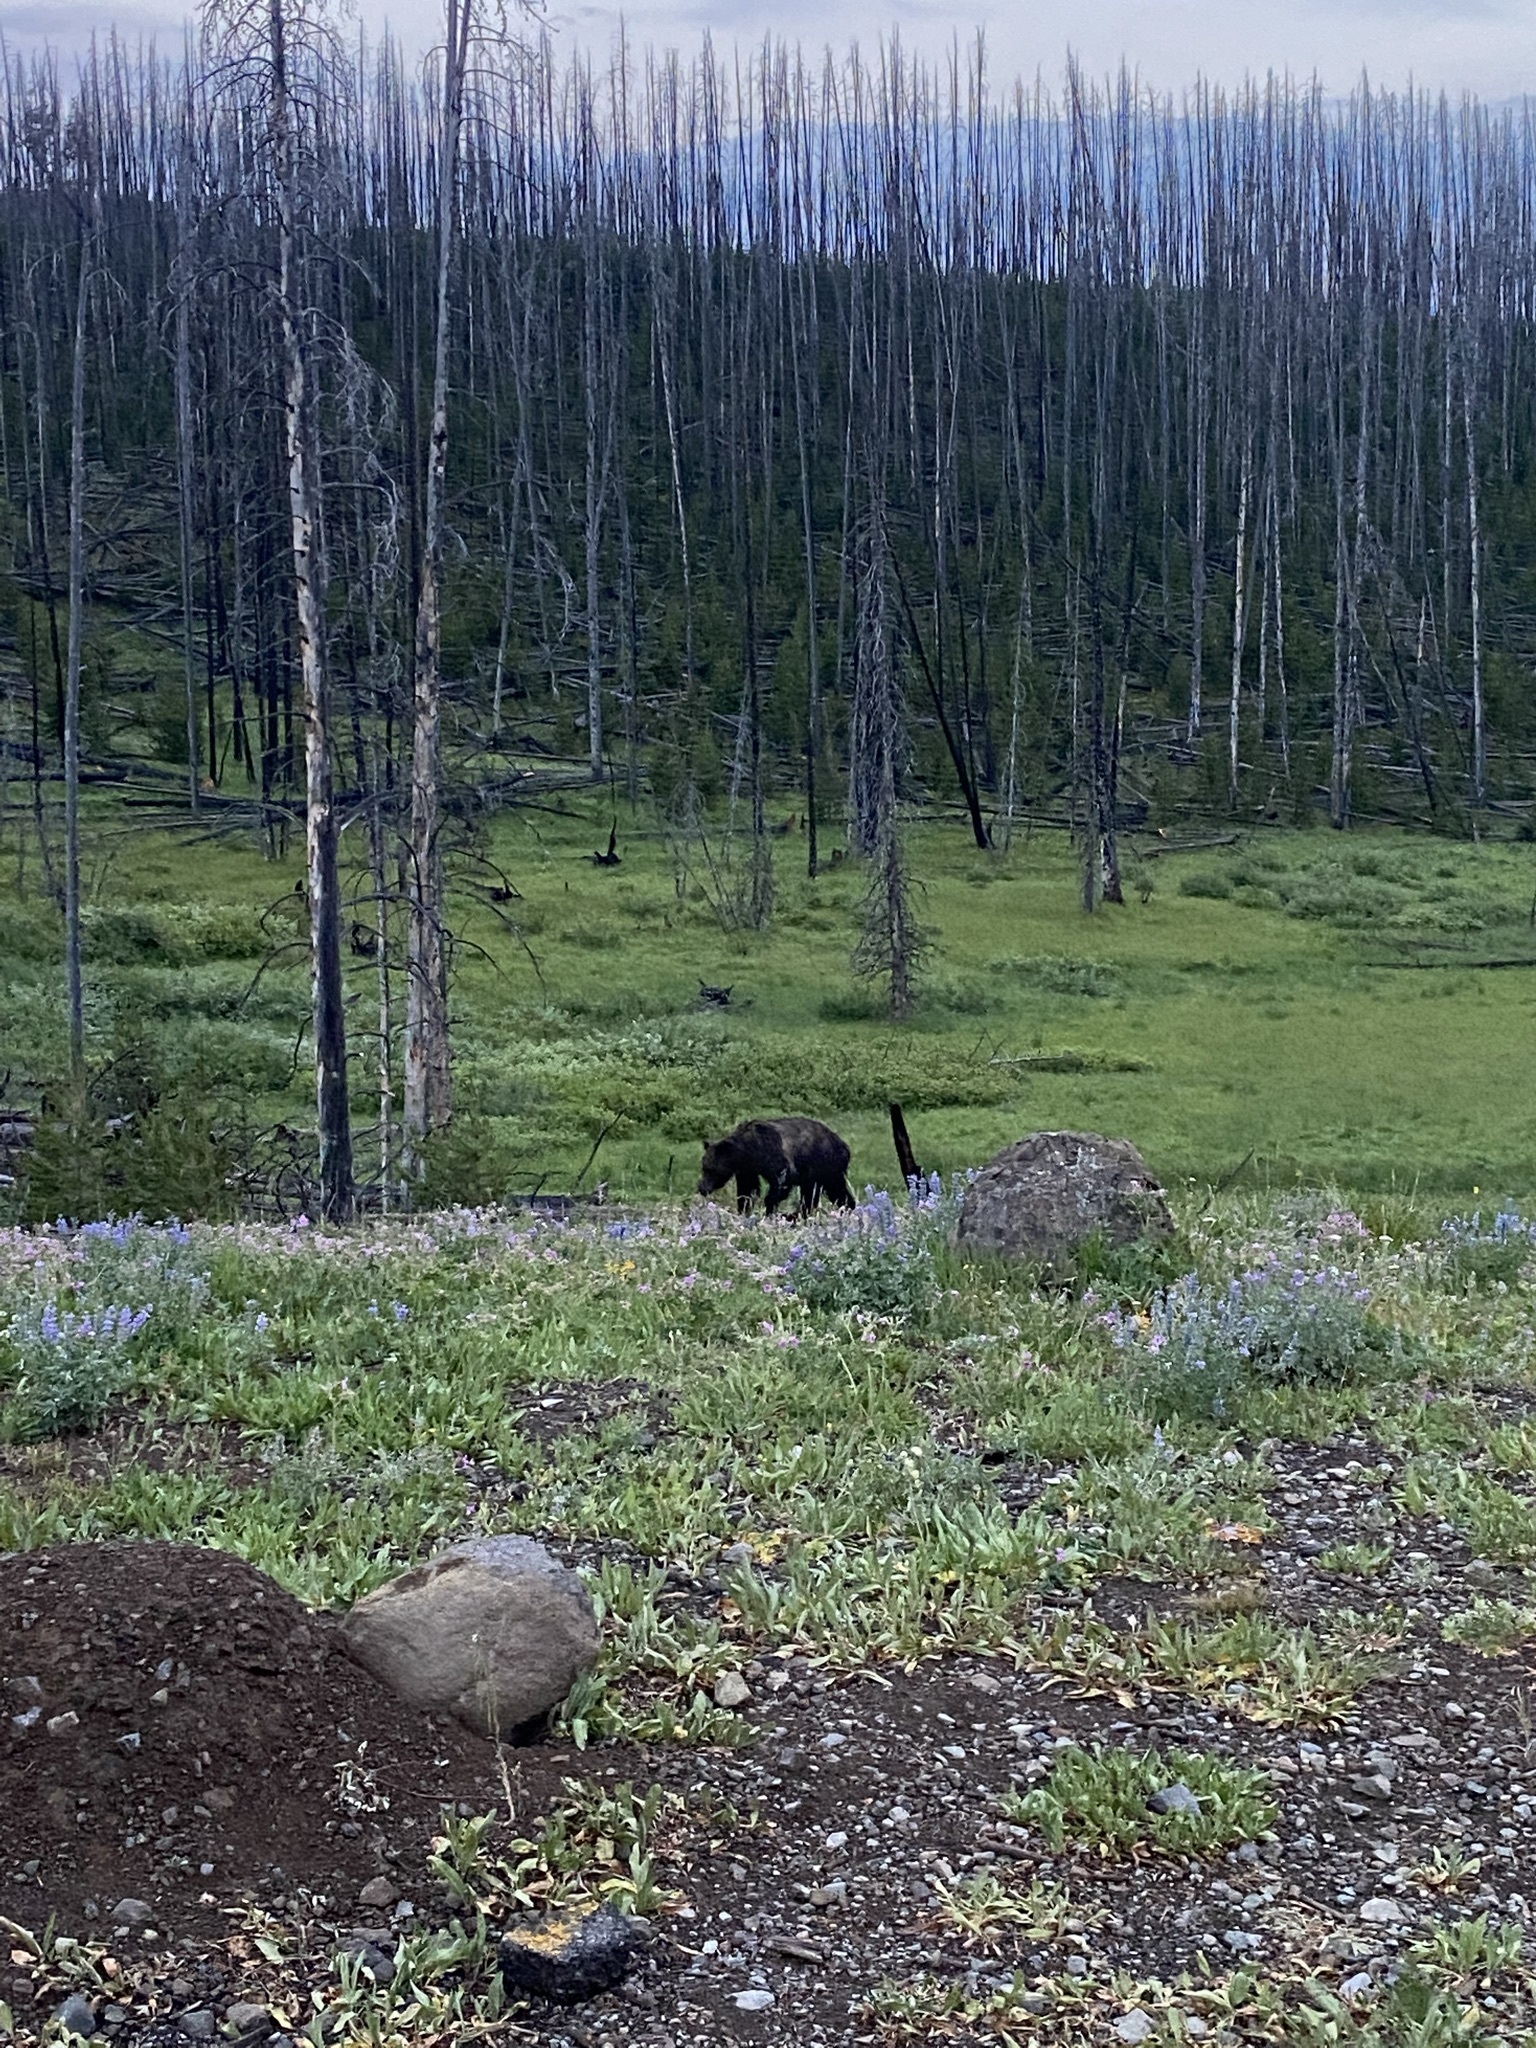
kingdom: Animalia
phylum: Chordata
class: Mammalia
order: Carnivora
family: Ursidae
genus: Ursus
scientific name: Ursus arctos
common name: Brown bear
